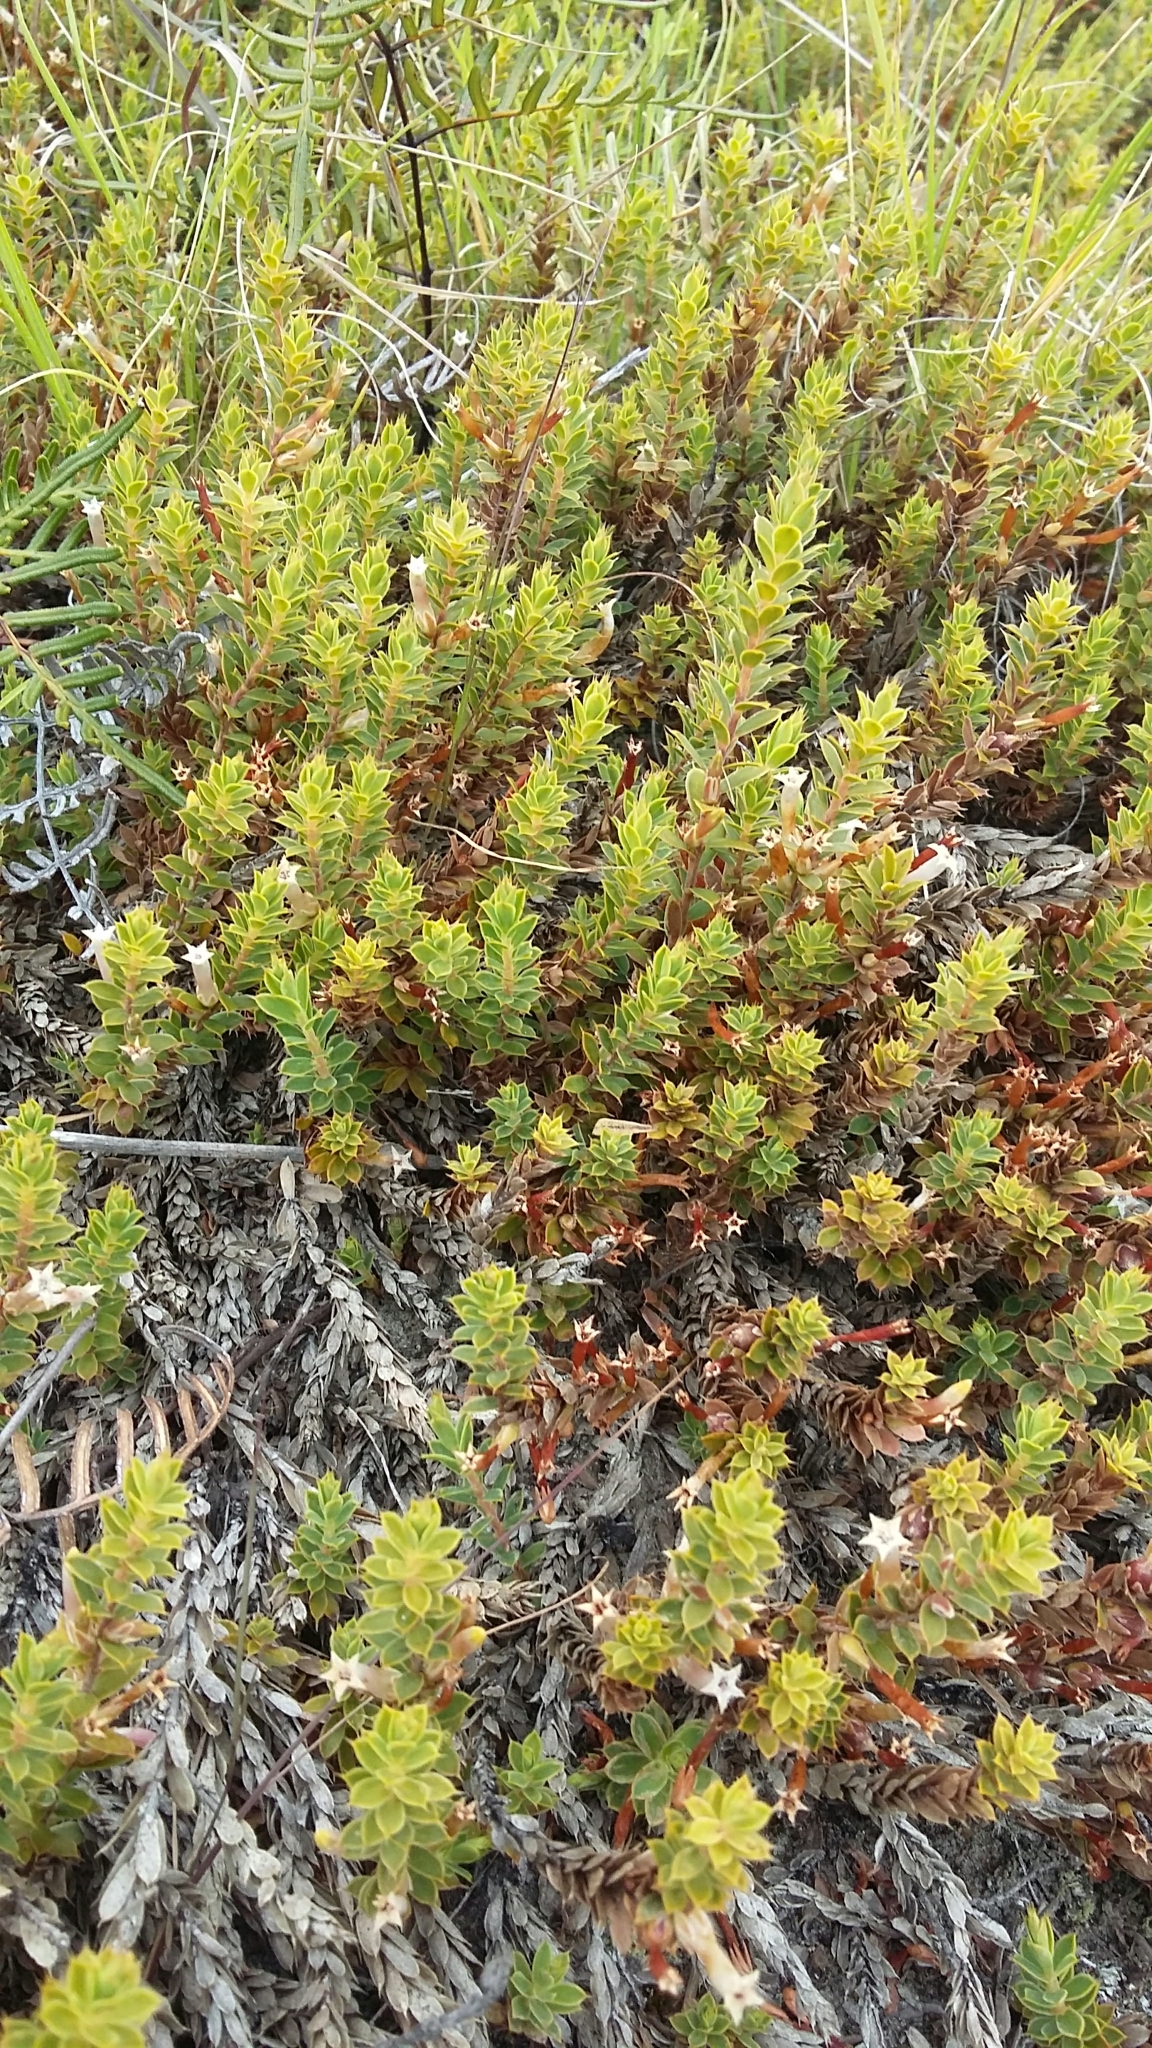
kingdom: Plantae
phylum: Tracheophyta
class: Magnoliopsida
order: Ericales
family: Ericaceae
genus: Styphelia
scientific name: Styphelia nesophila
